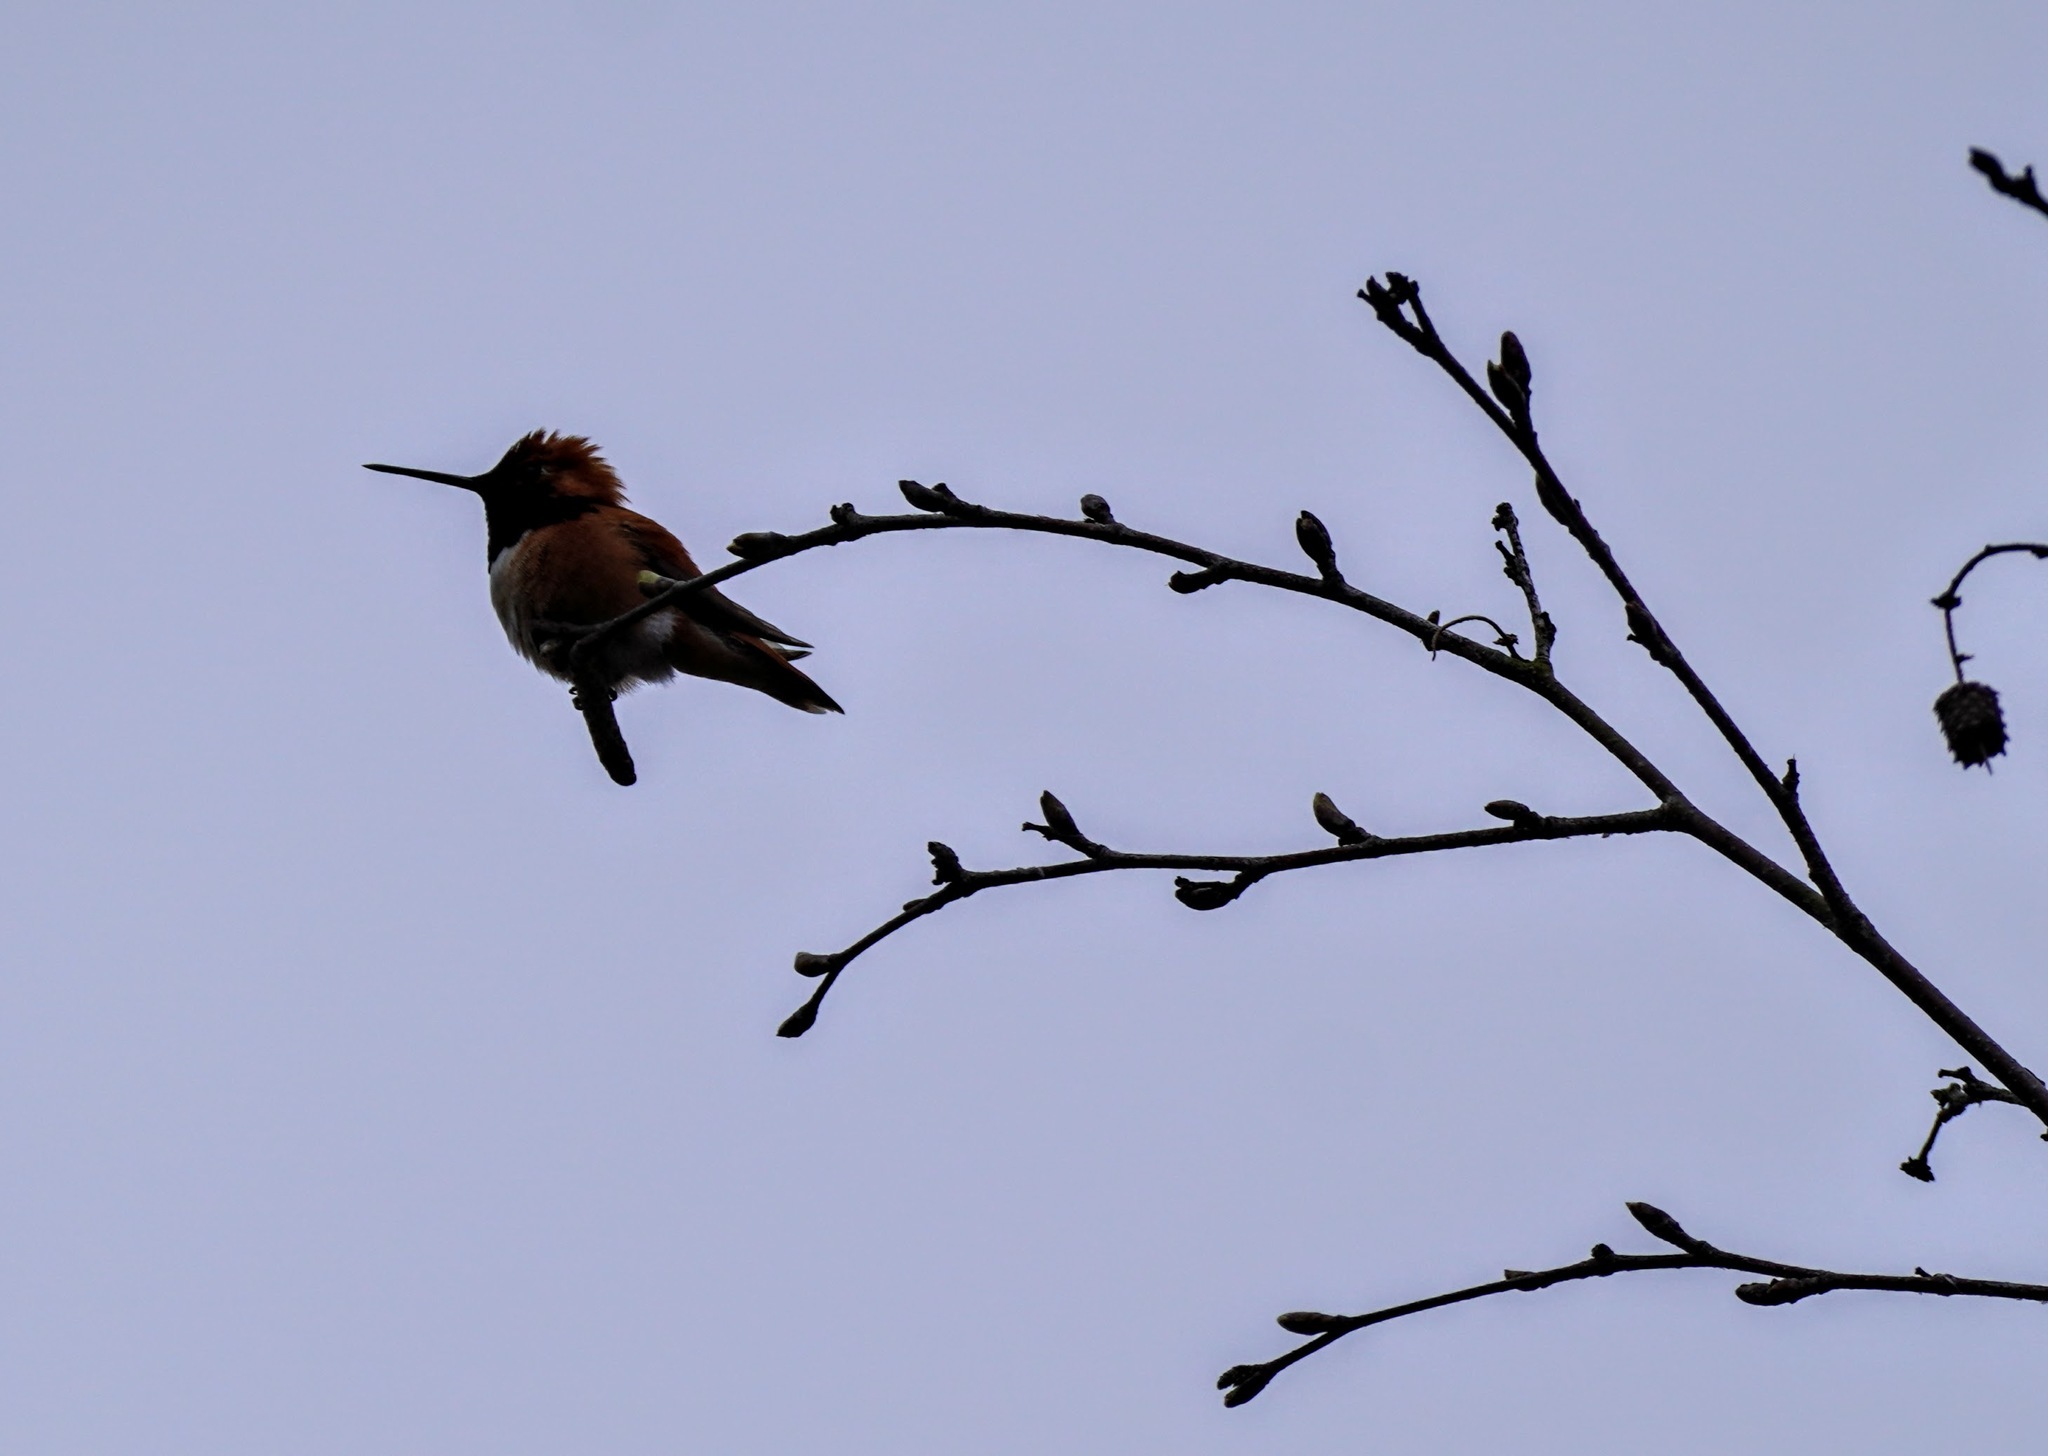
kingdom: Animalia
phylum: Chordata
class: Aves
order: Apodiformes
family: Trochilidae
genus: Selasphorus
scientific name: Selasphorus rufus
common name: Rufous hummingbird
